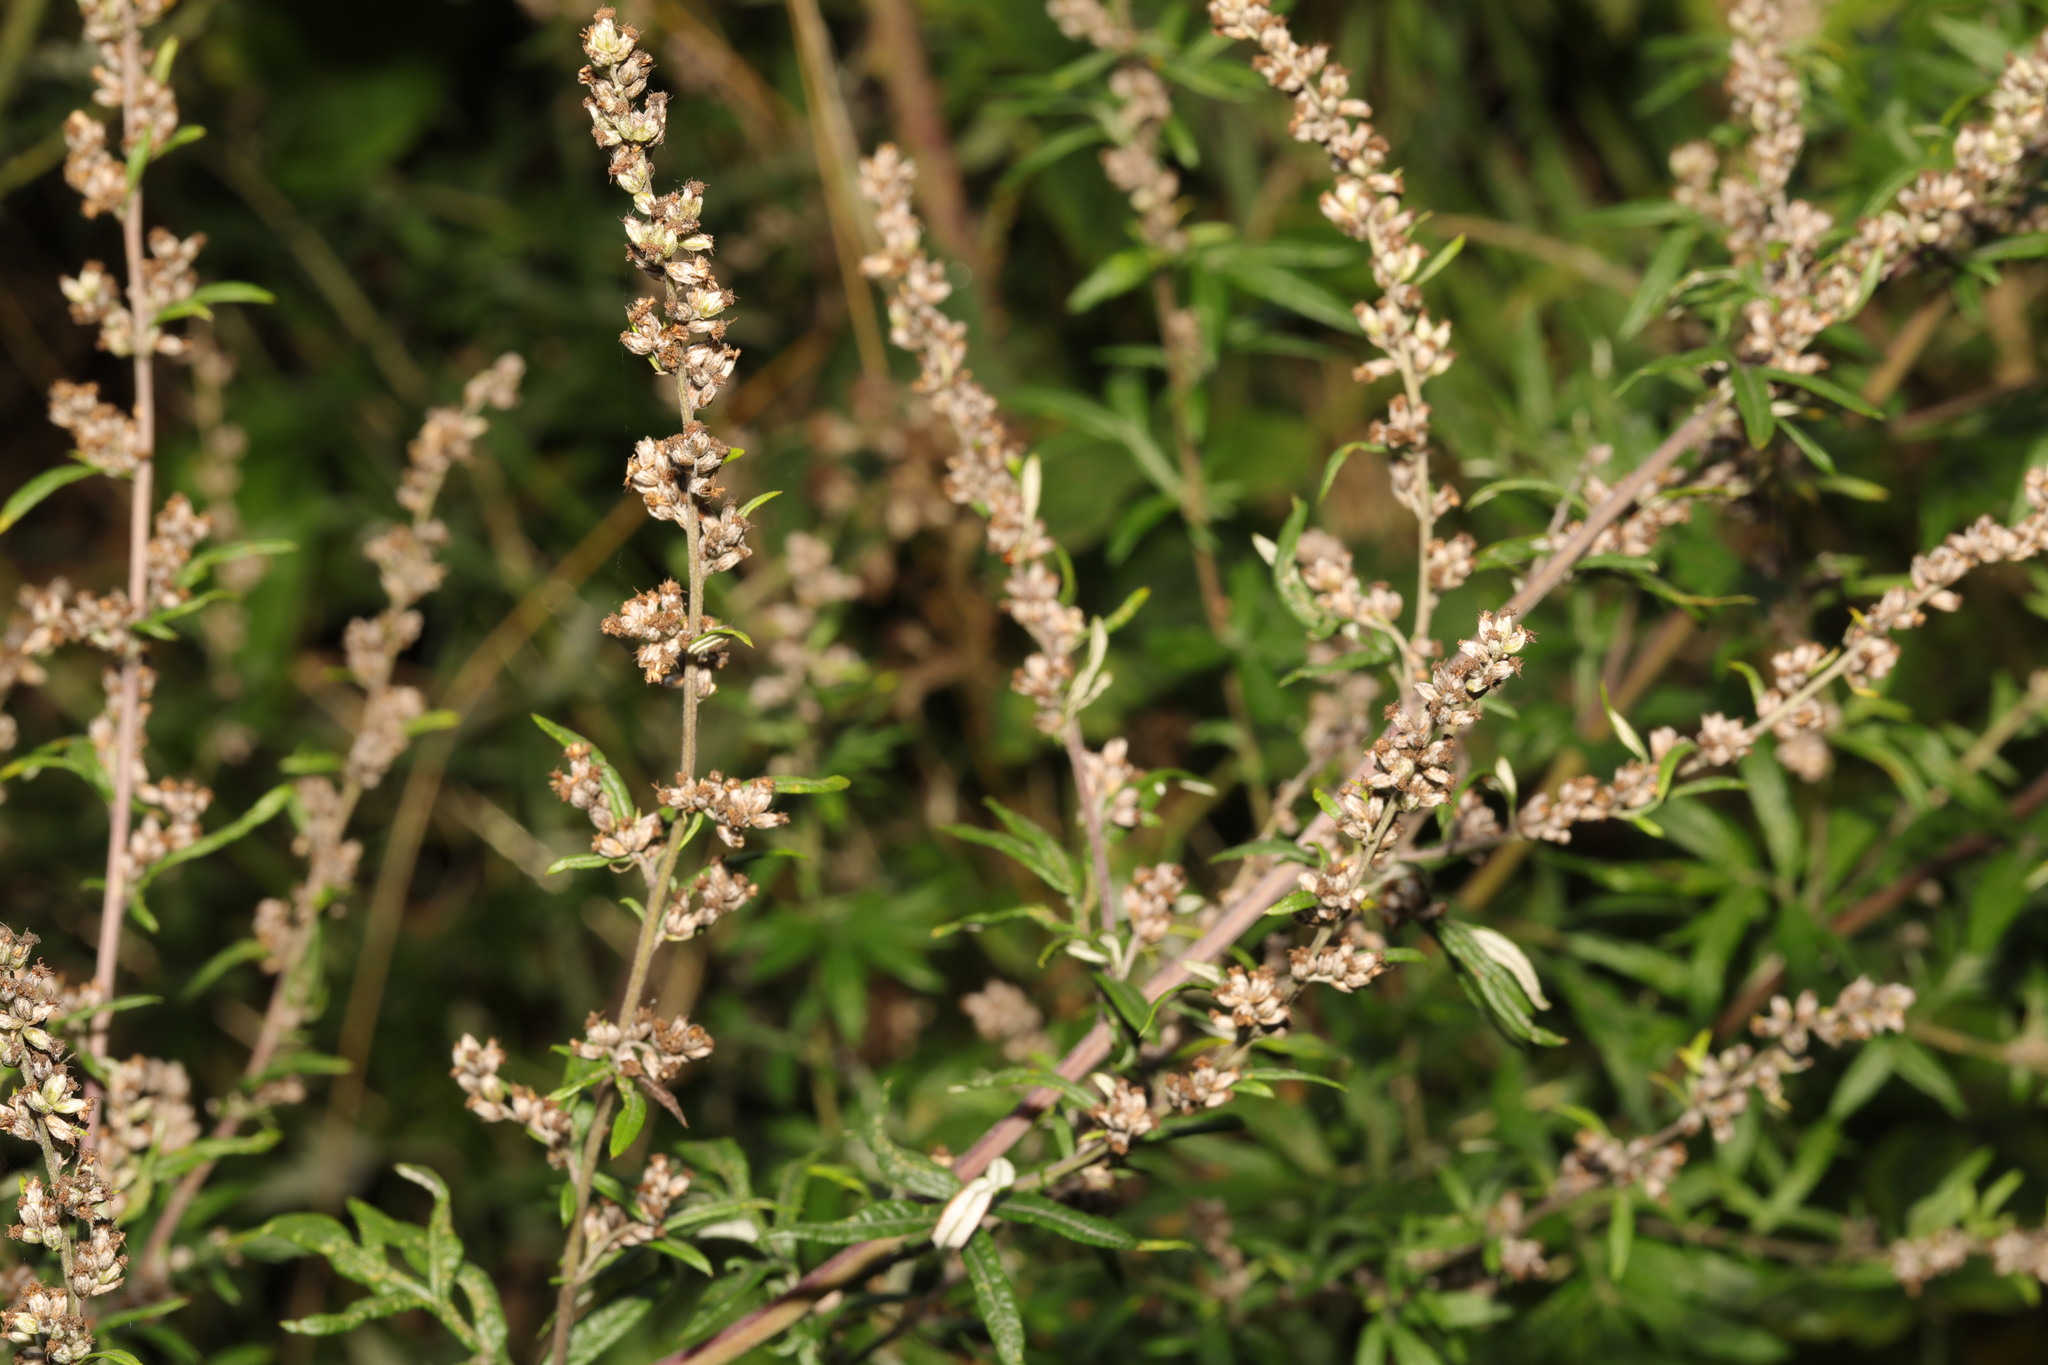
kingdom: Plantae
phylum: Tracheophyta
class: Magnoliopsida
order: Asterales
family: Asteraceae
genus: Artemisia
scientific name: Artemisia vulgaris
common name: Mugwort
